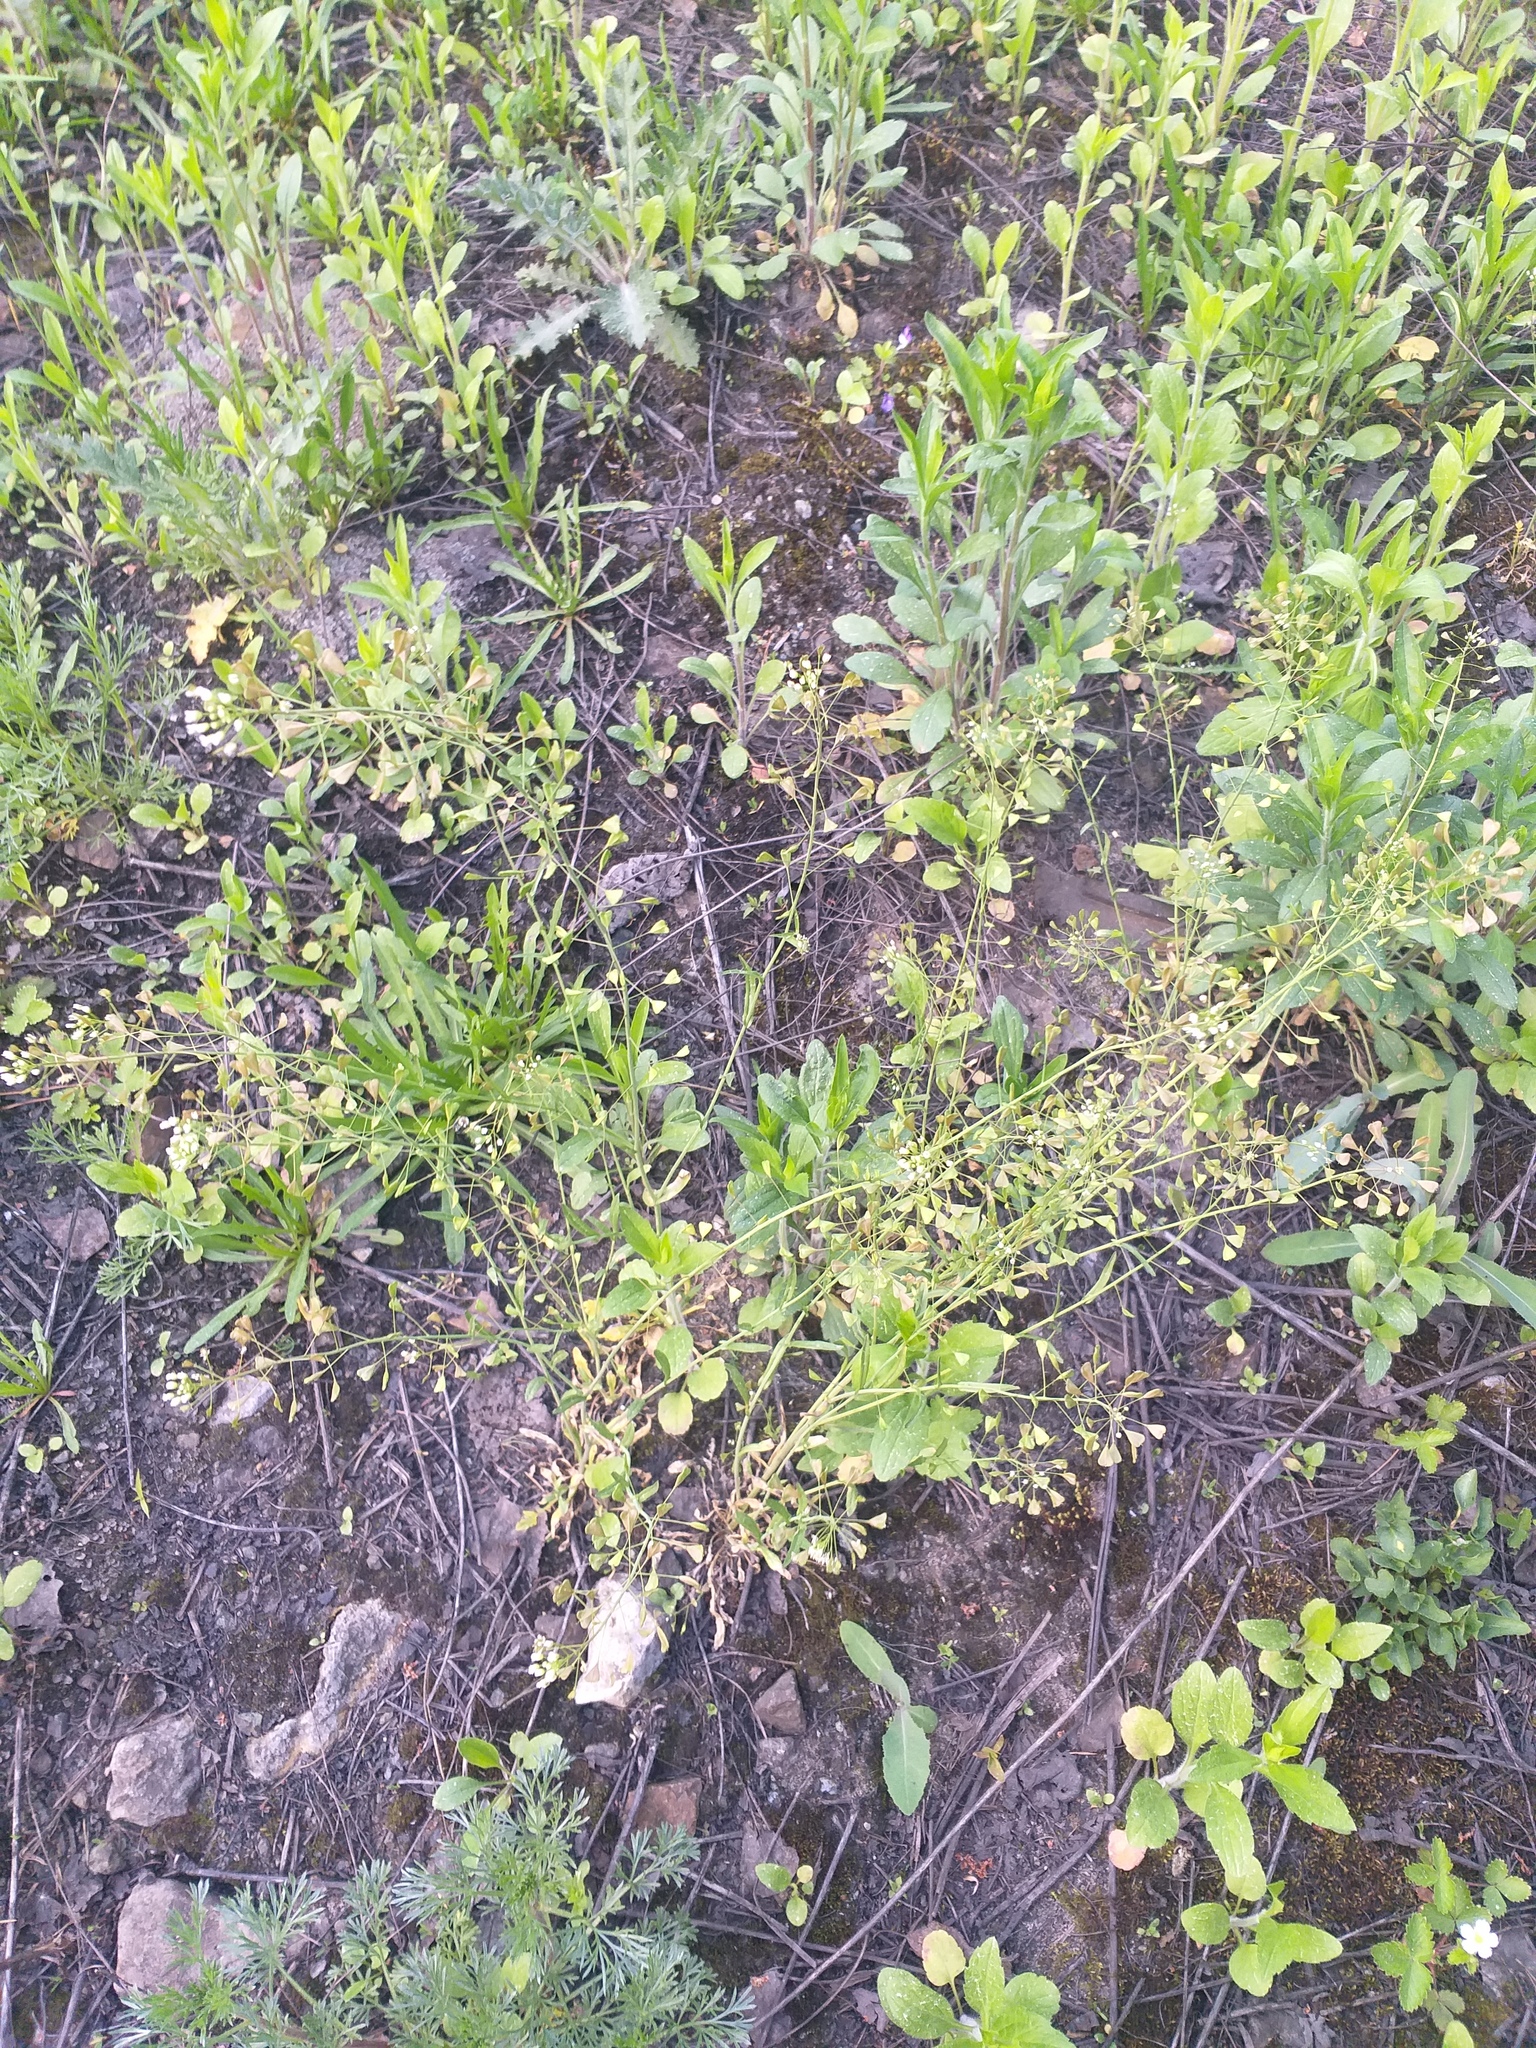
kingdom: Plantae
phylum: Tracheophyta
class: Magnoliopsida
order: Brassicales
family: Brassicaceae
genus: Capsella
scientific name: Capsella bursa-pastoris
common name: Shepherd's purse
